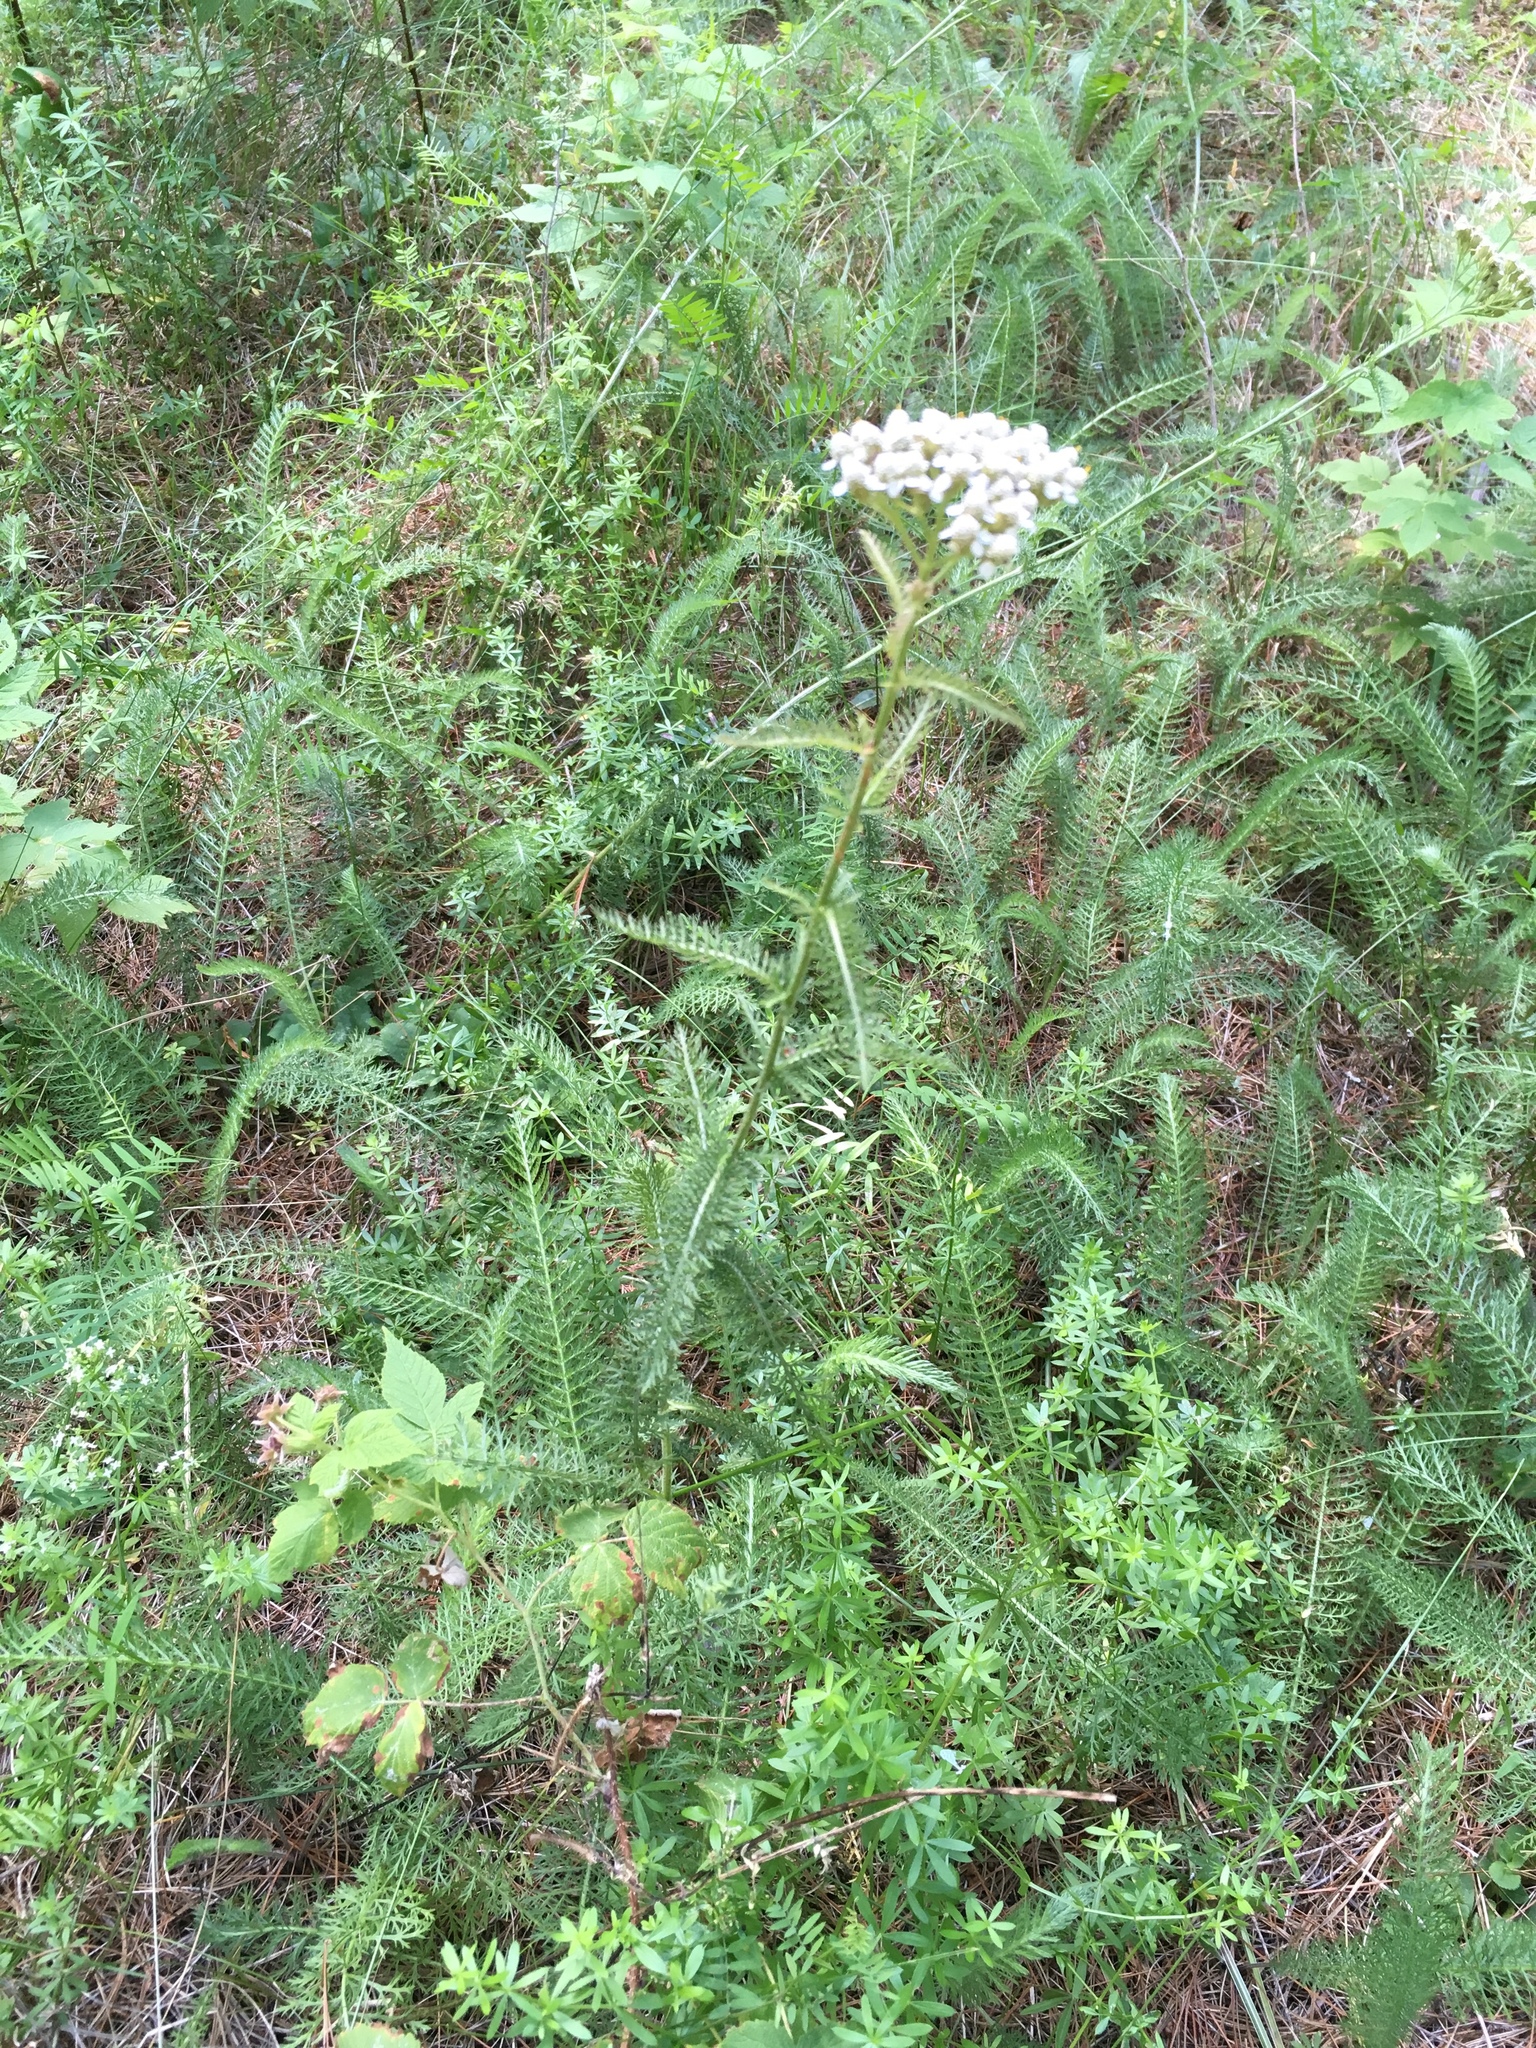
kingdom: Plantae
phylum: Tracheophyta
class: Magnoliopsida
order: Asterales
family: Asteraceae
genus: Achillea
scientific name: Achillea millefolium
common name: Yarrow
